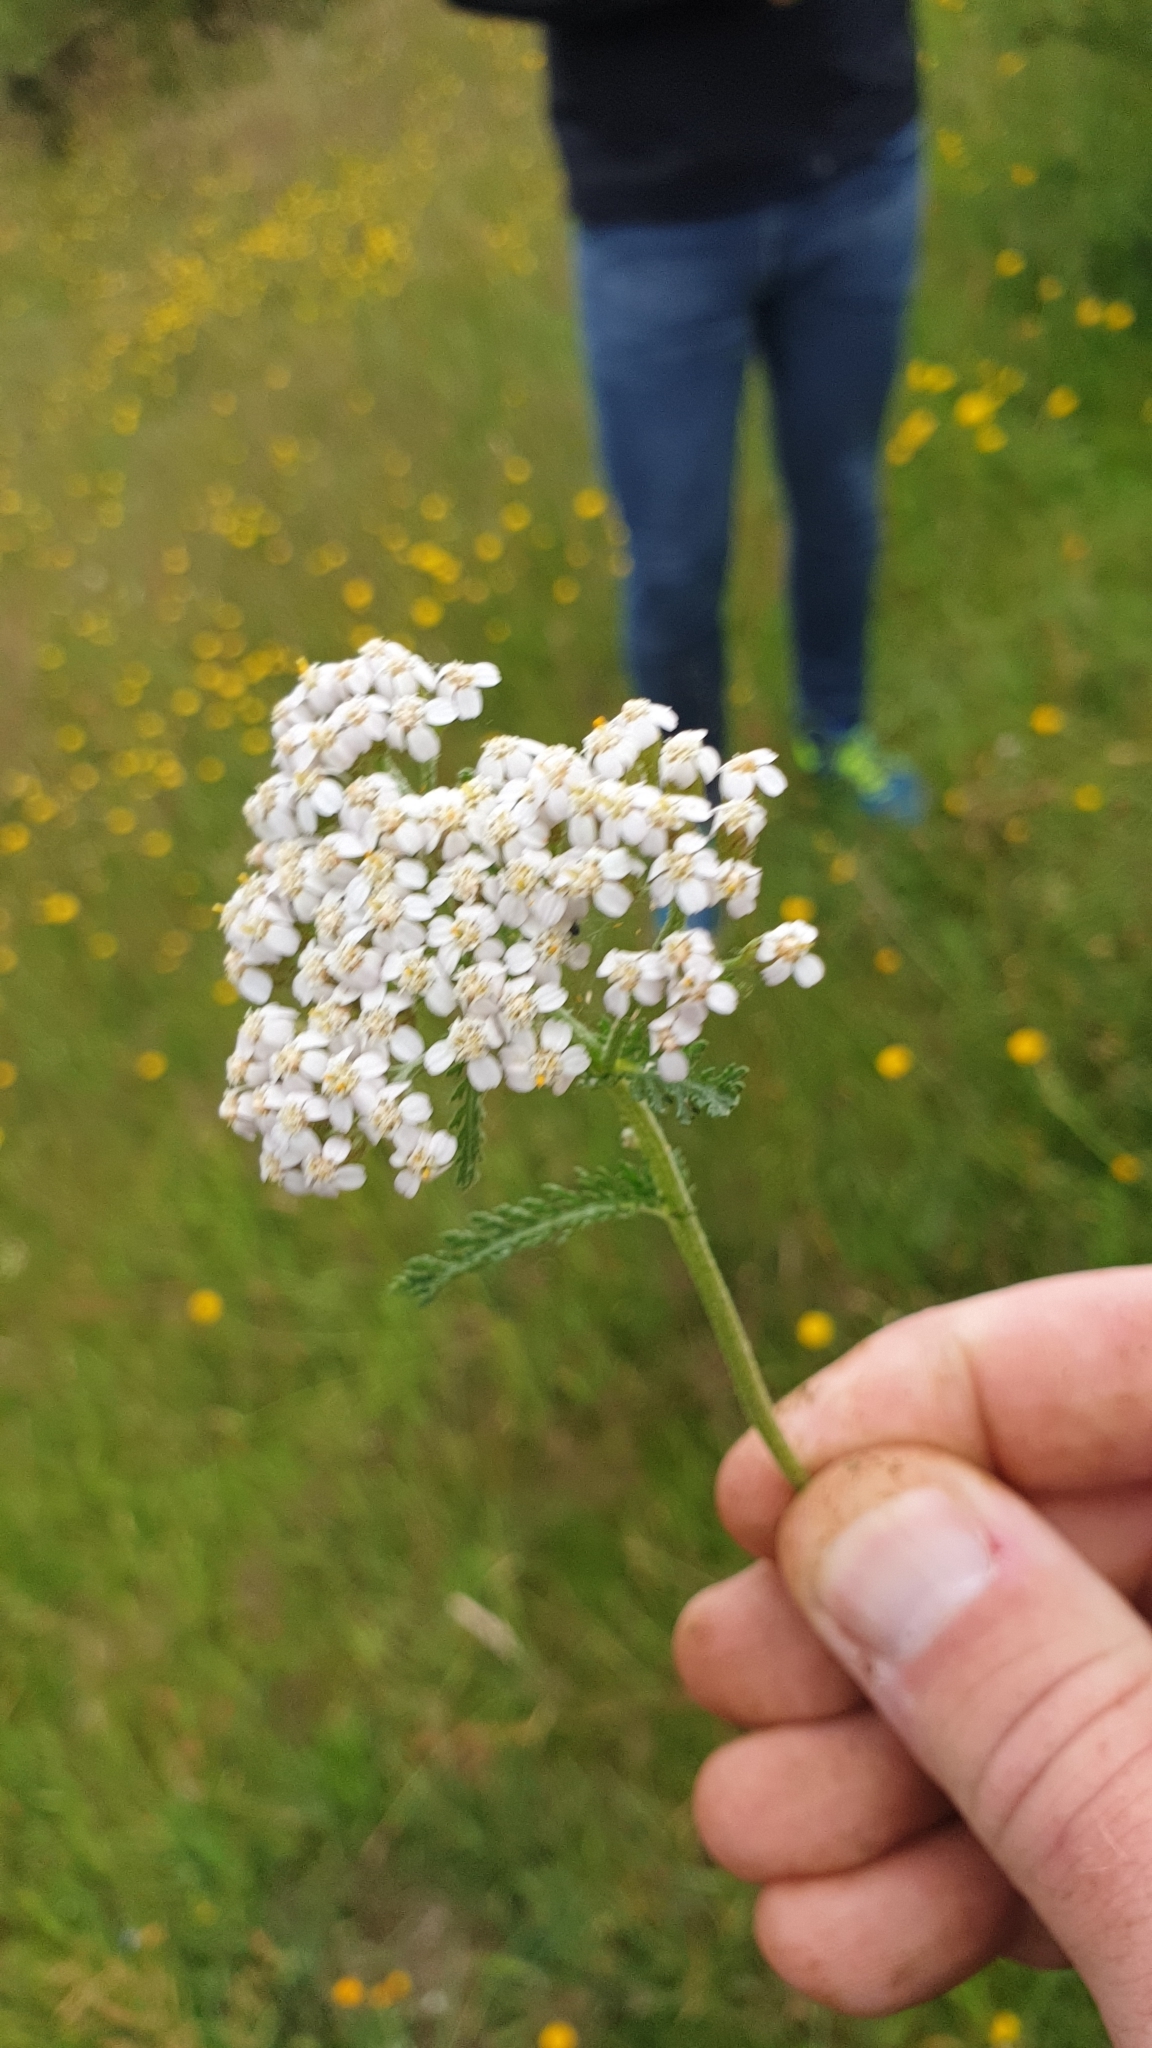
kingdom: Plantae
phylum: Tracheophyta
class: Magnoliopsida
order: Asterales
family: Asteraceae
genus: Achillea
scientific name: Achillea millefolium
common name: Yarrow
